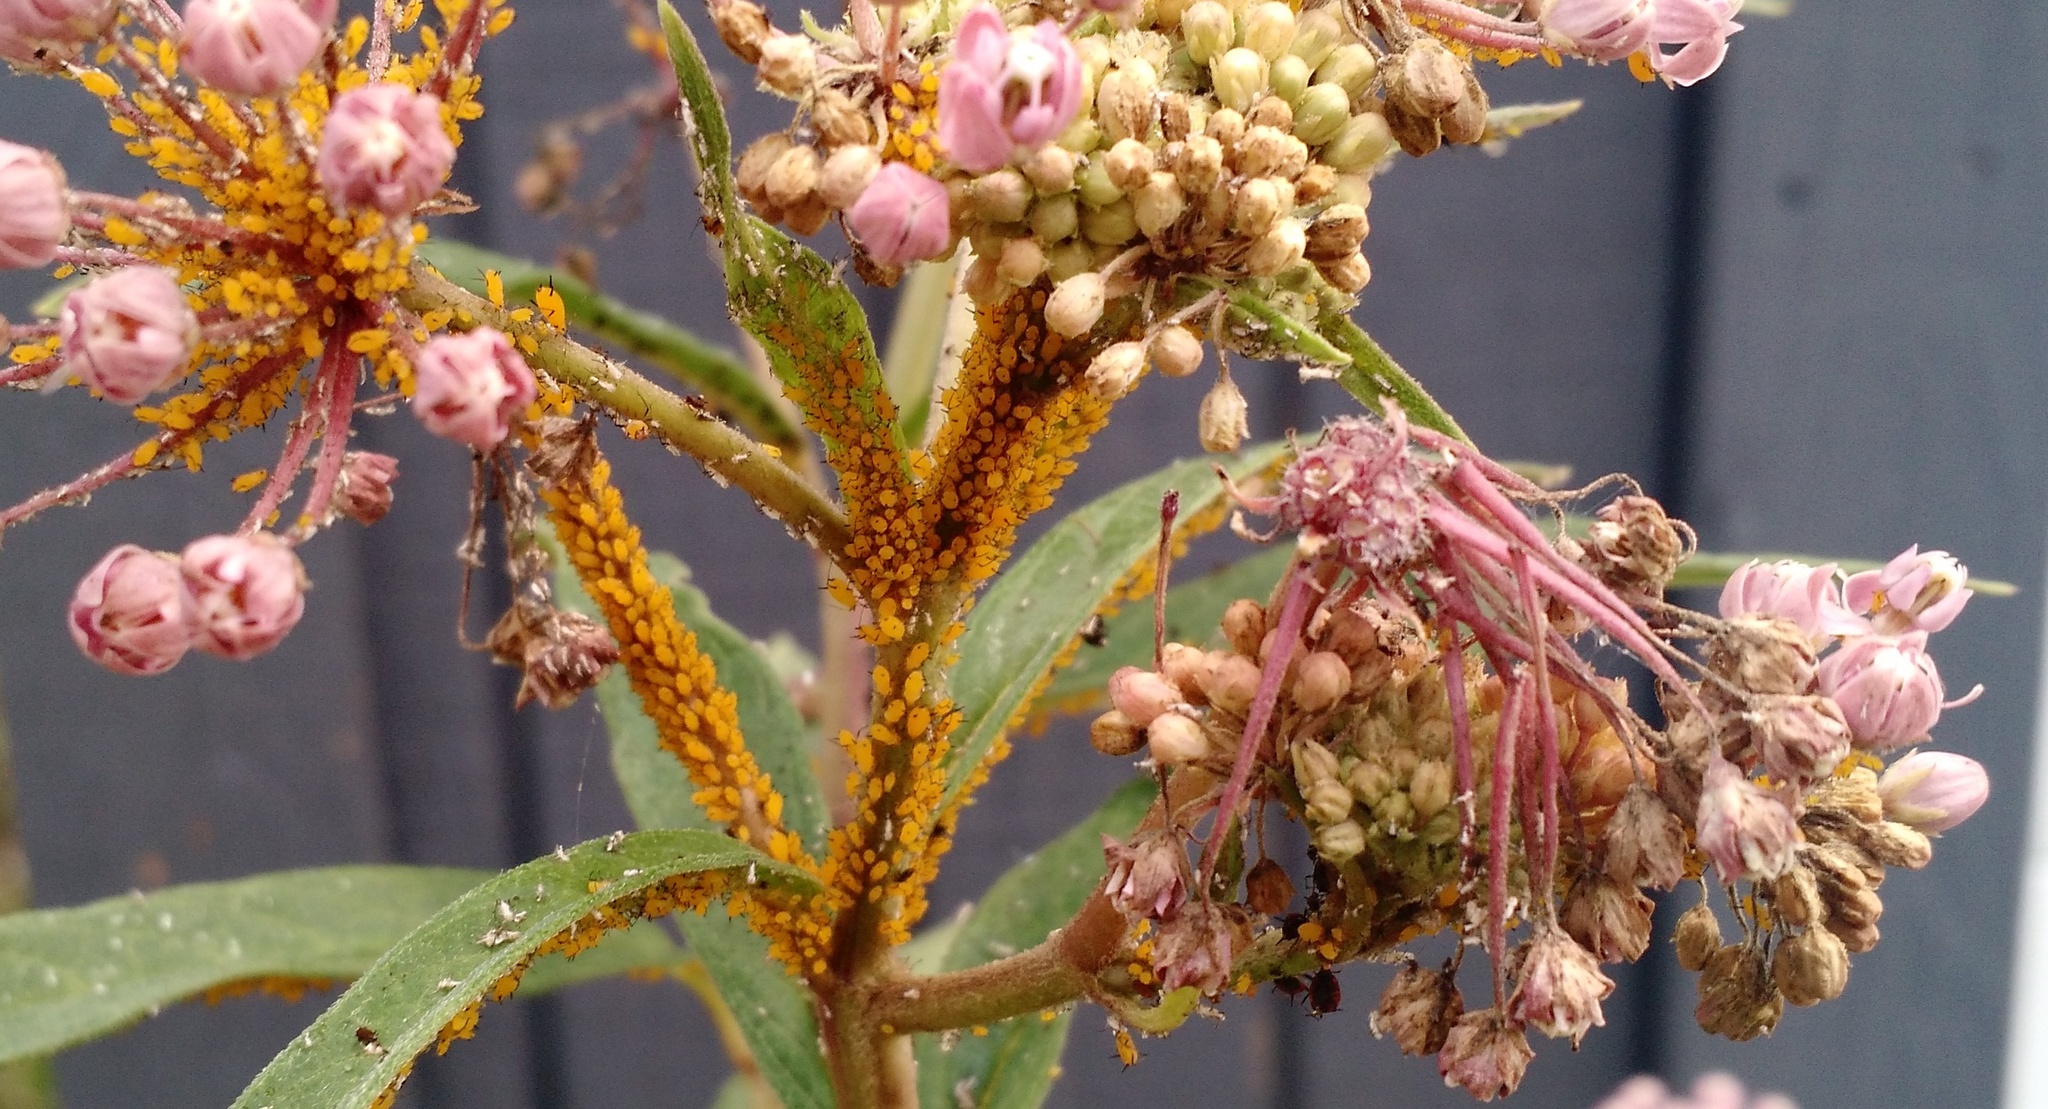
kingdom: Animalia
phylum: Arthropoda
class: Insecta
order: Hemiptera
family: Aphididae
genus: Aphis
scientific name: Aphis nerii
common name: Oleander aphid
